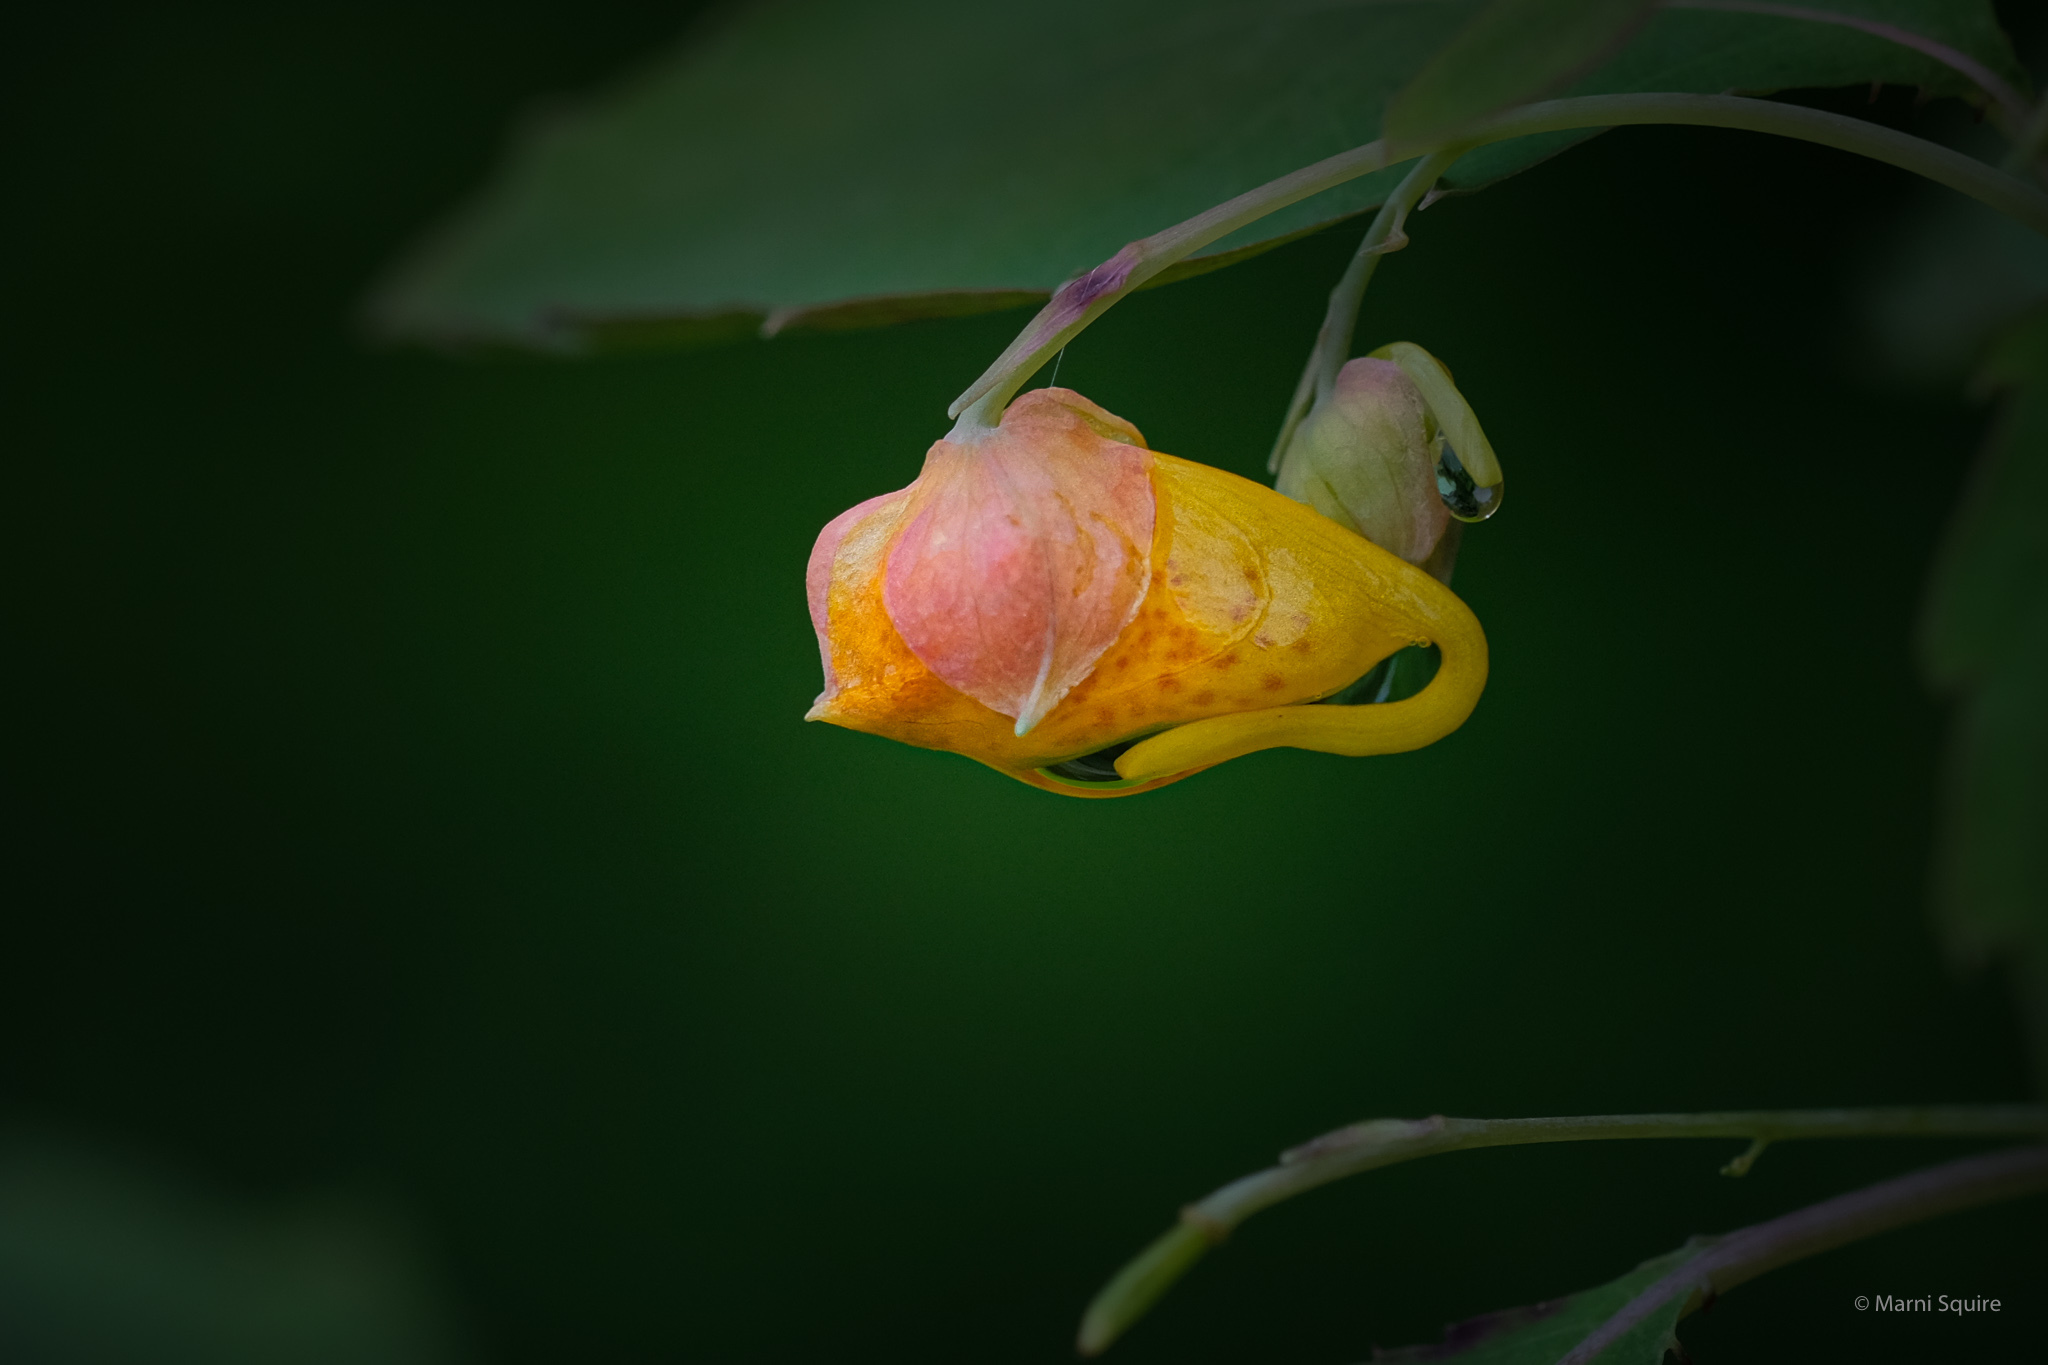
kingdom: Plantae
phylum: Tracheophyta
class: Magnoliopsida
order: Ericales
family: Balsaminaceae
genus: Impatiens
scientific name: Impatiens capensis
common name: Orange balsam
